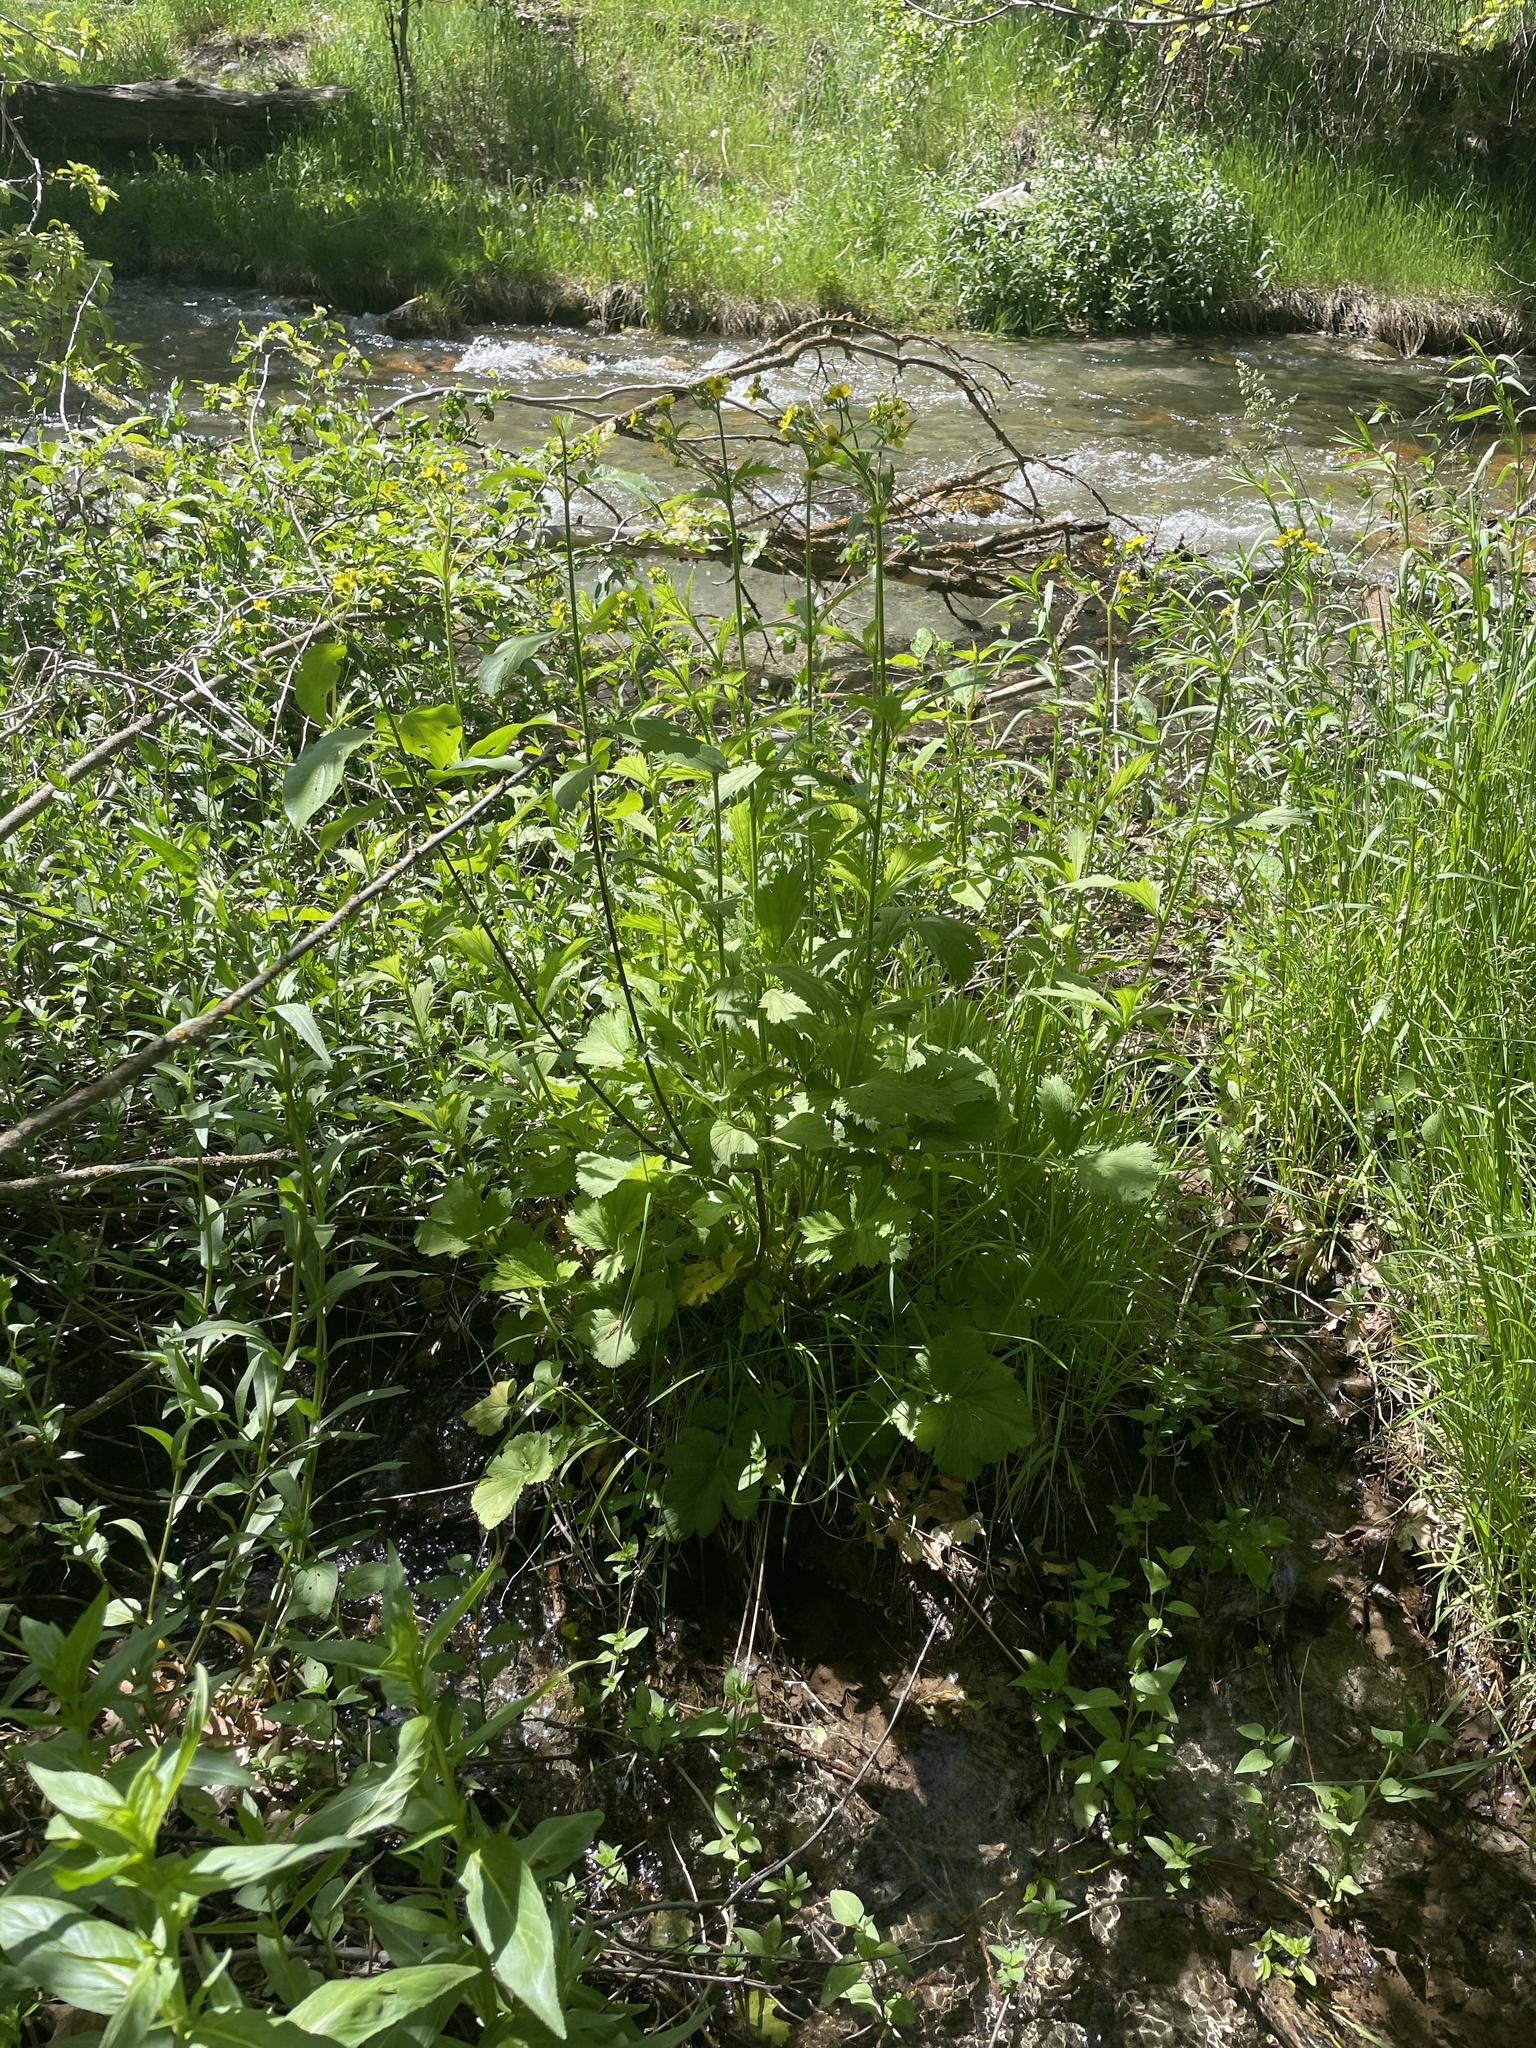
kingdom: Plantae
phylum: Tracheophyta
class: Magnoliopsida
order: Rosales
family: Rosaceae
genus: Geum
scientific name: Geum macrophyllum
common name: Large-leaved avens
